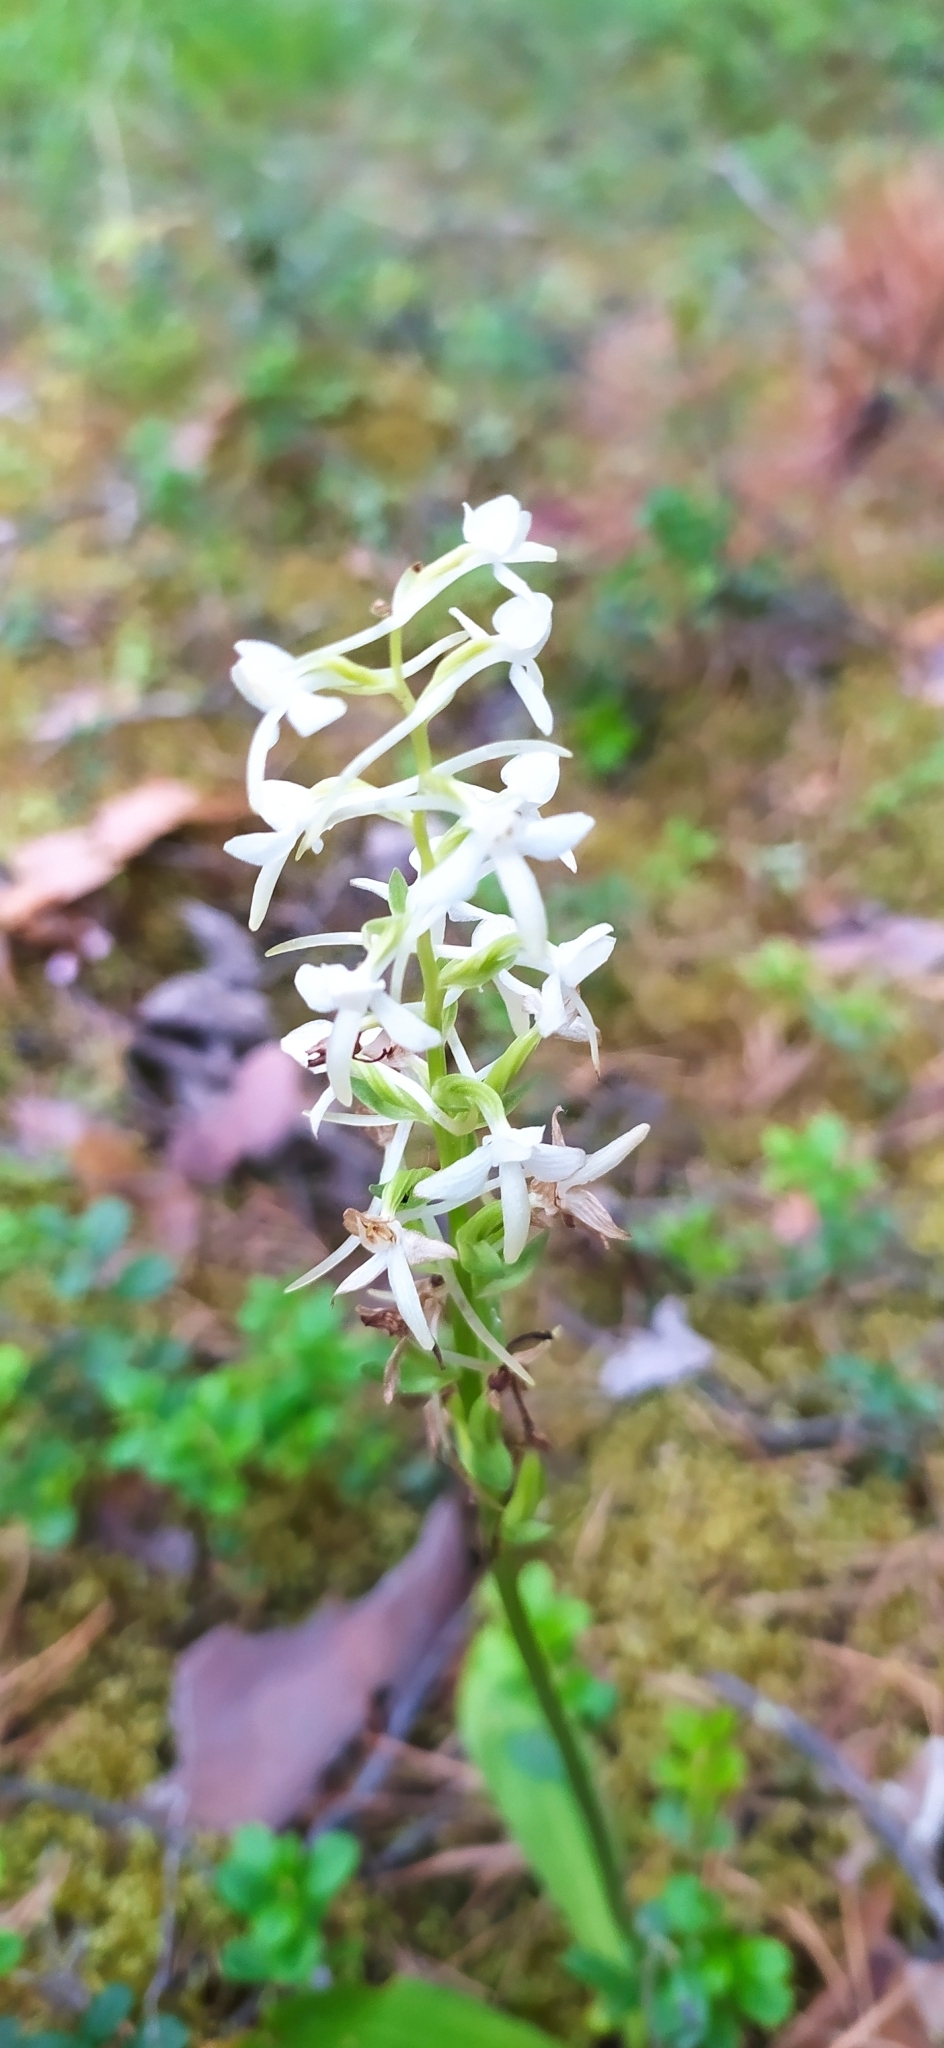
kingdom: Plantae
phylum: Tracheophyta
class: Liliopsida
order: Asparagales
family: Orchidaceae
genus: Platanthera
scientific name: Platanthera bifolia
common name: Lesser butterfly-orchid
